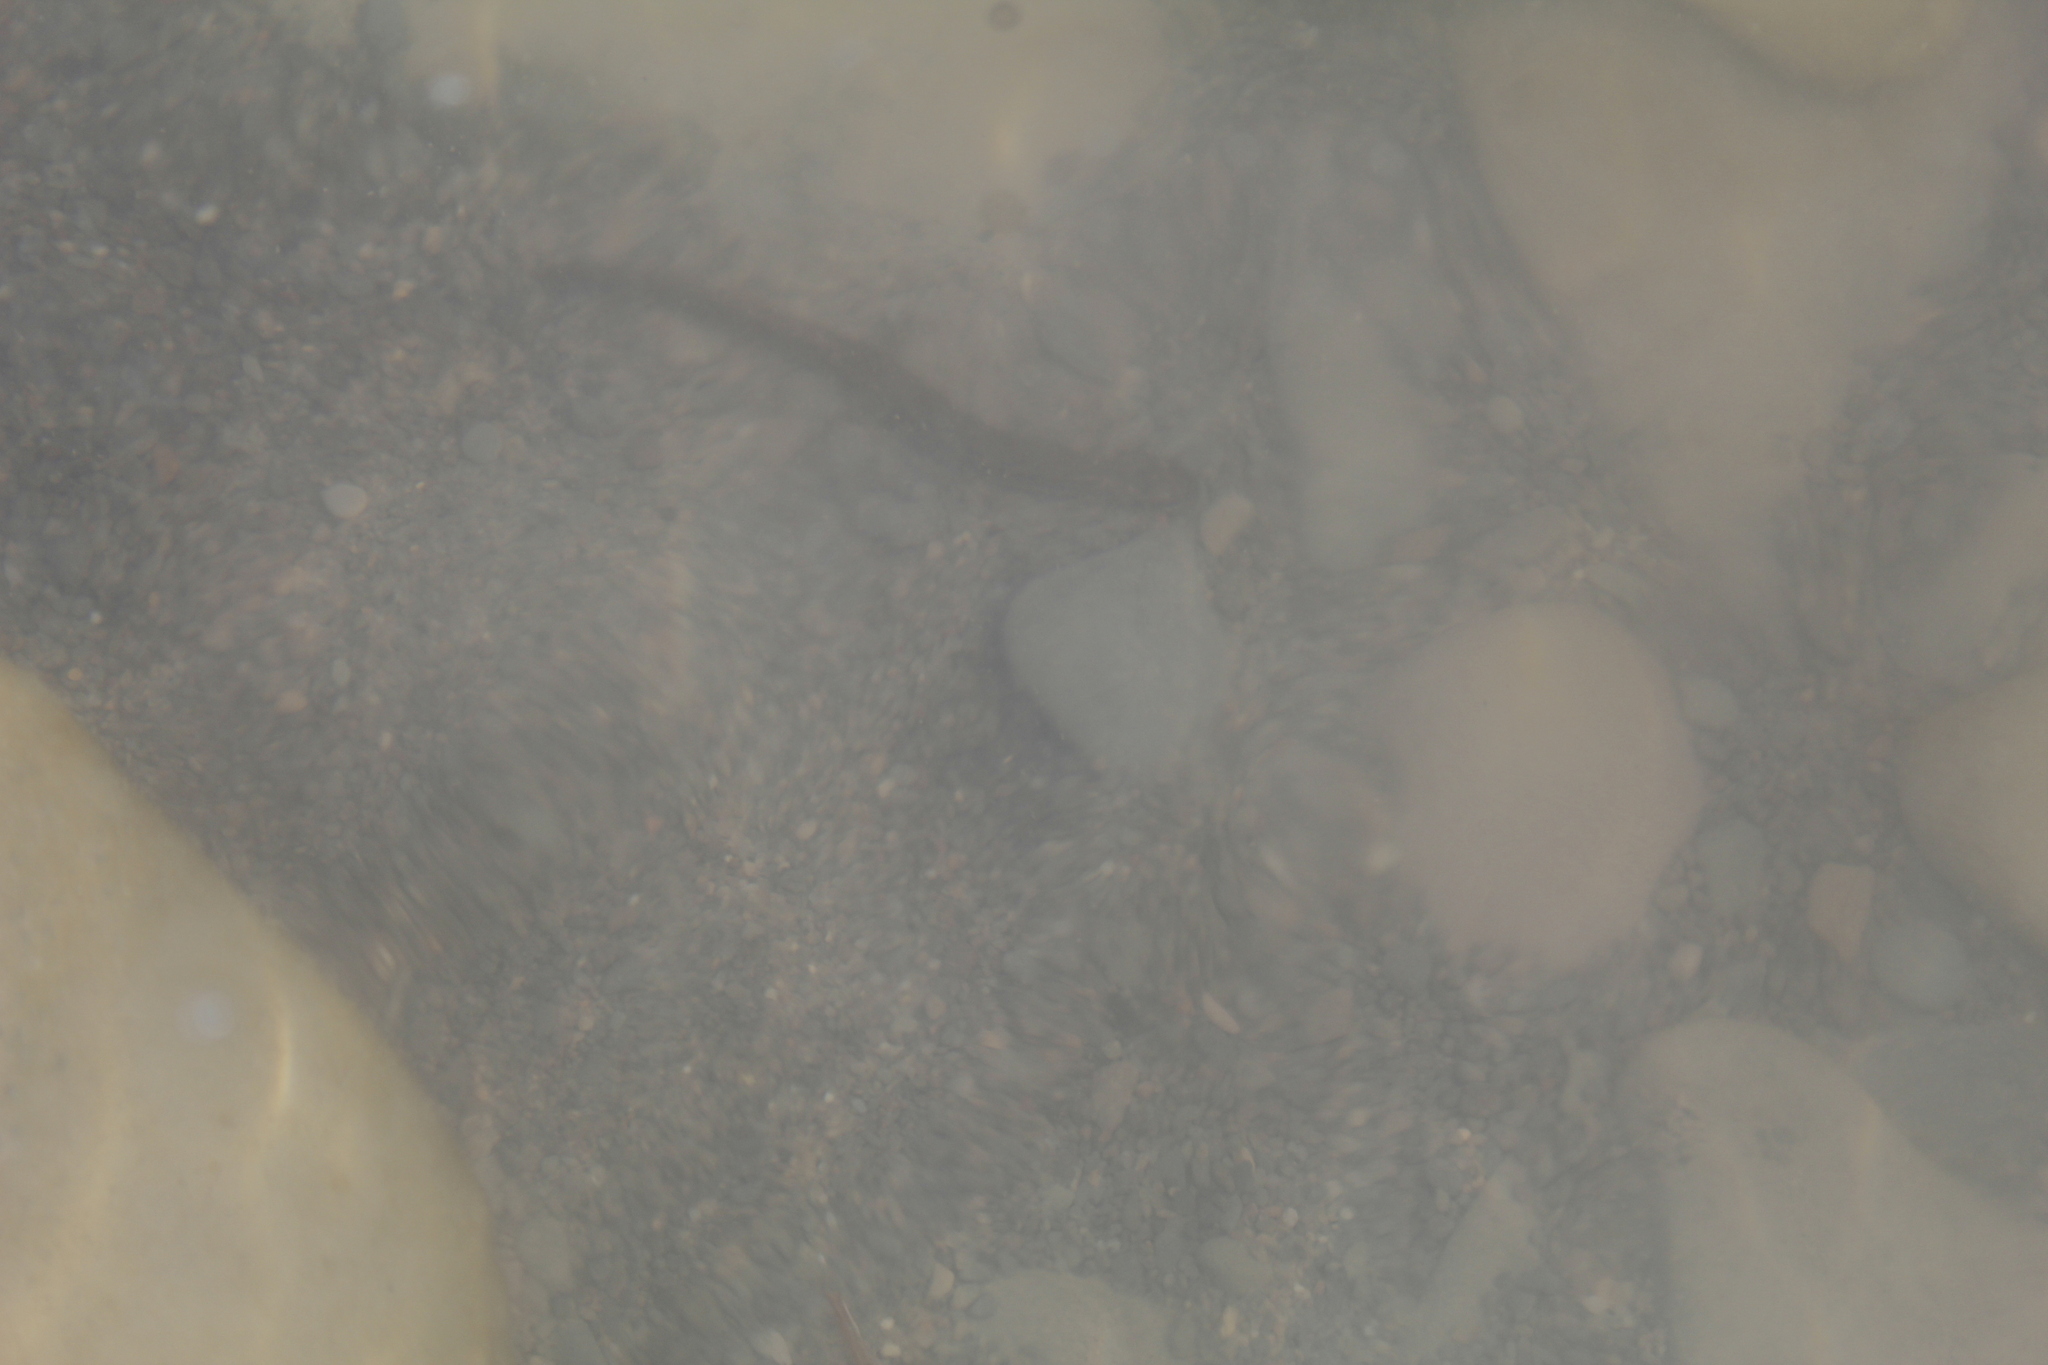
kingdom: Animalia
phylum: Chordata
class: Amphibia
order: Caudata
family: Plethodontidae
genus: Eurycea
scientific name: Eurycea bislineata
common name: Northern two-lined salamander
